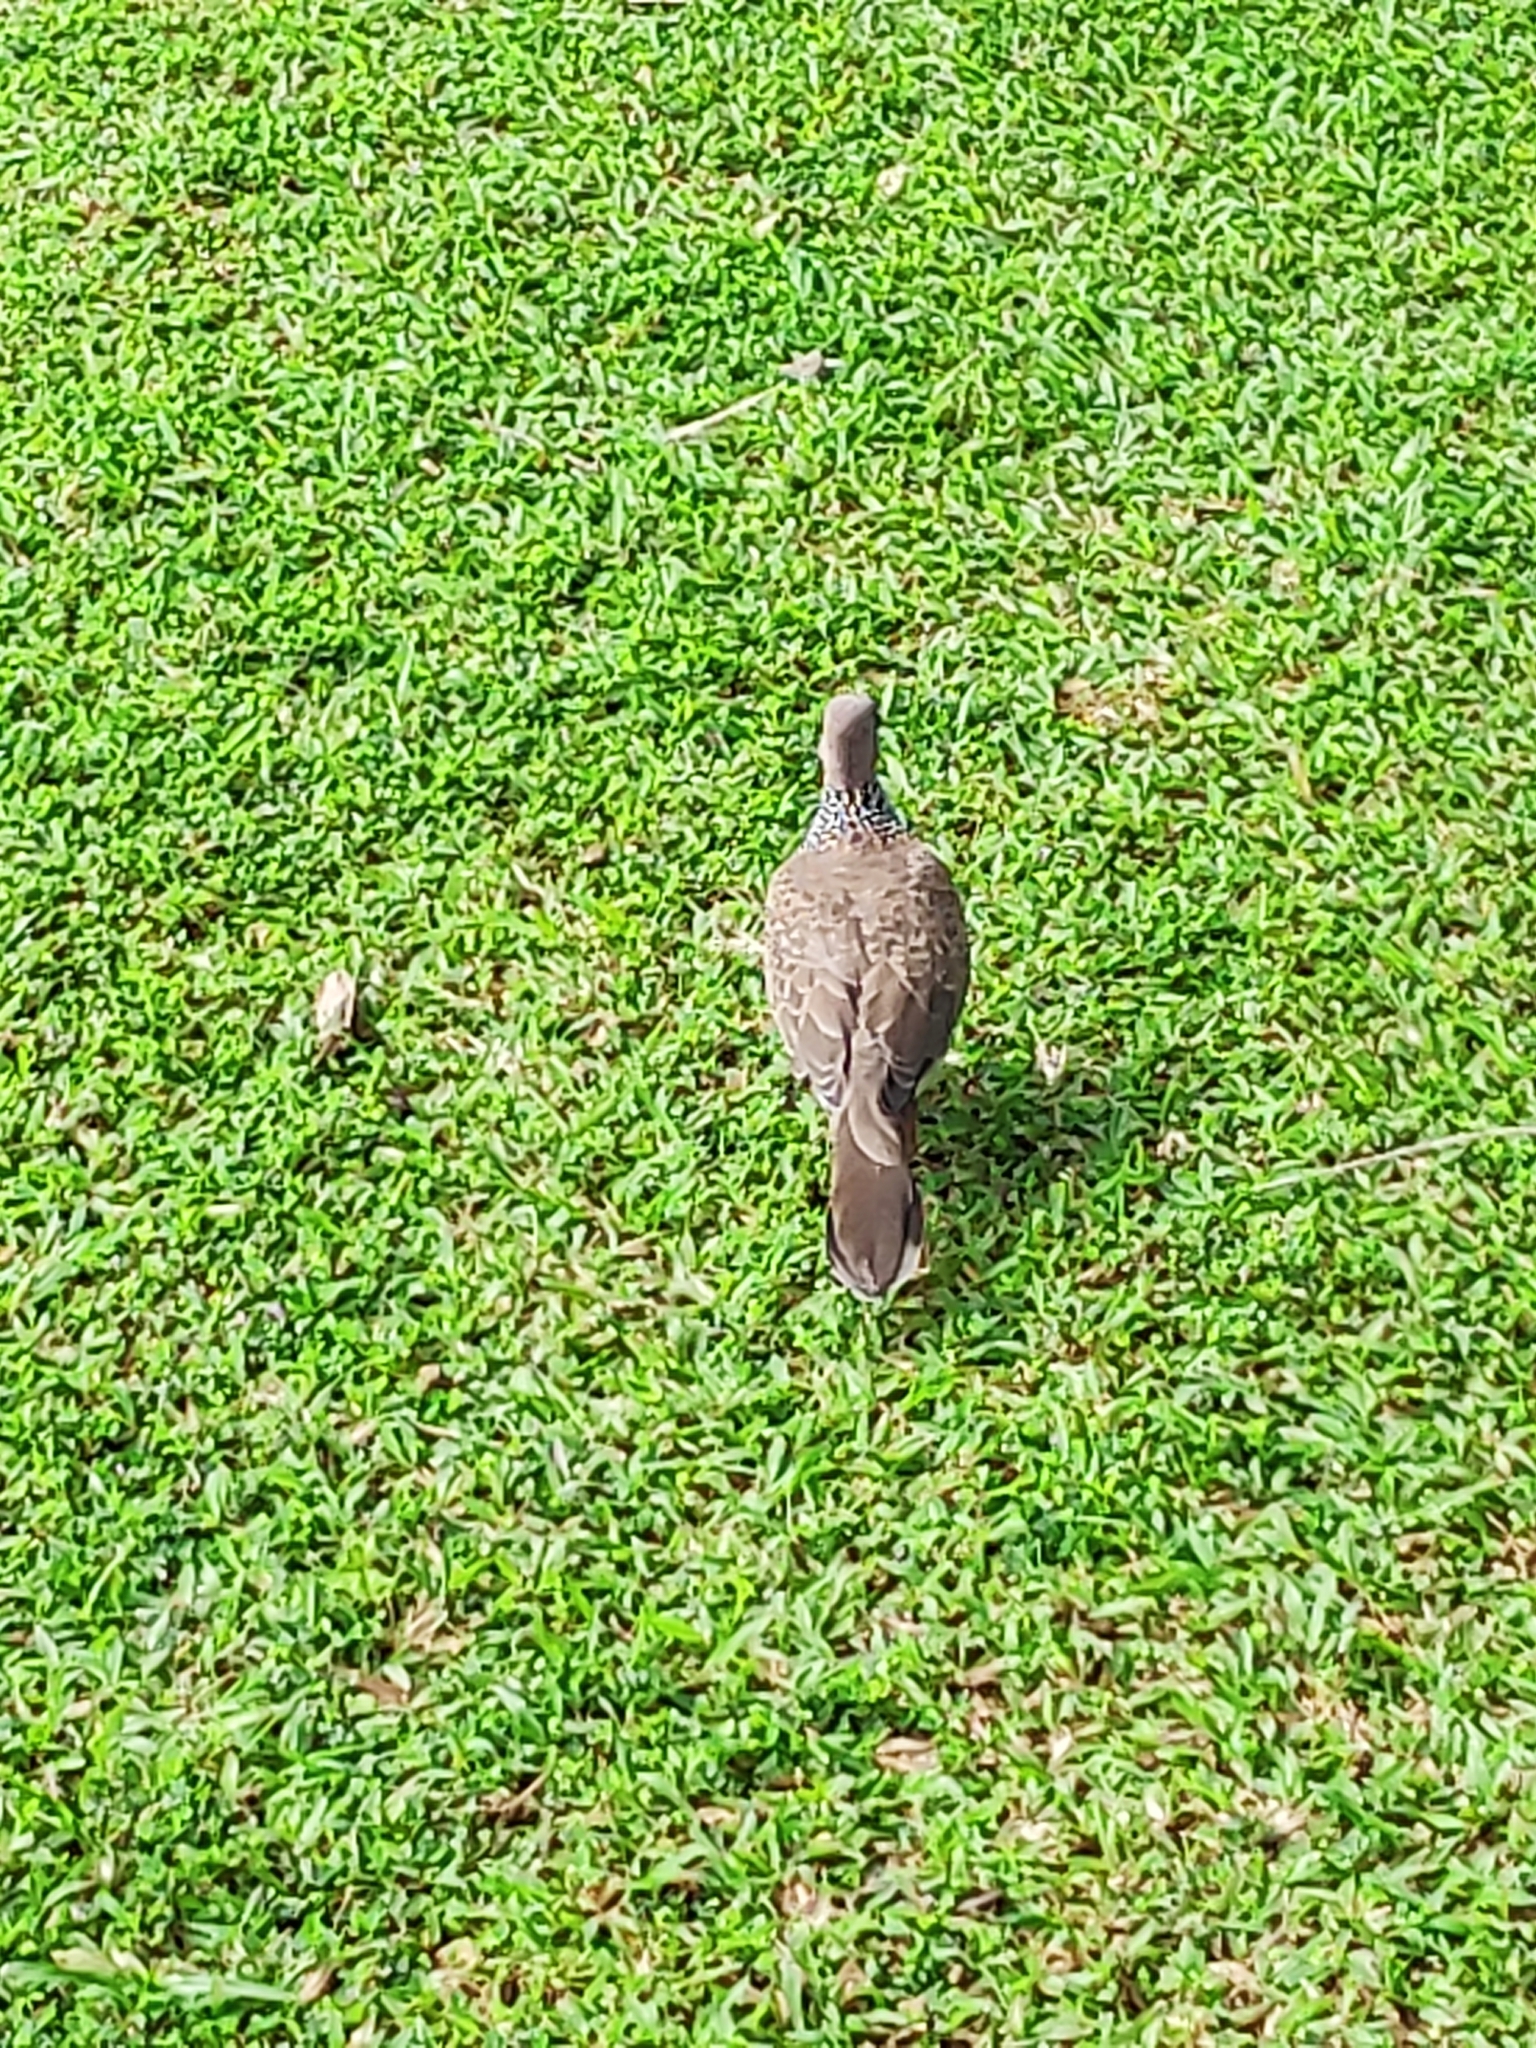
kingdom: Animalia
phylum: Chordata
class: Aves
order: Columbiformes
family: Columbidae
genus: Spilopelia
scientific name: Spilopelia chinensis
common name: Spotted dove
